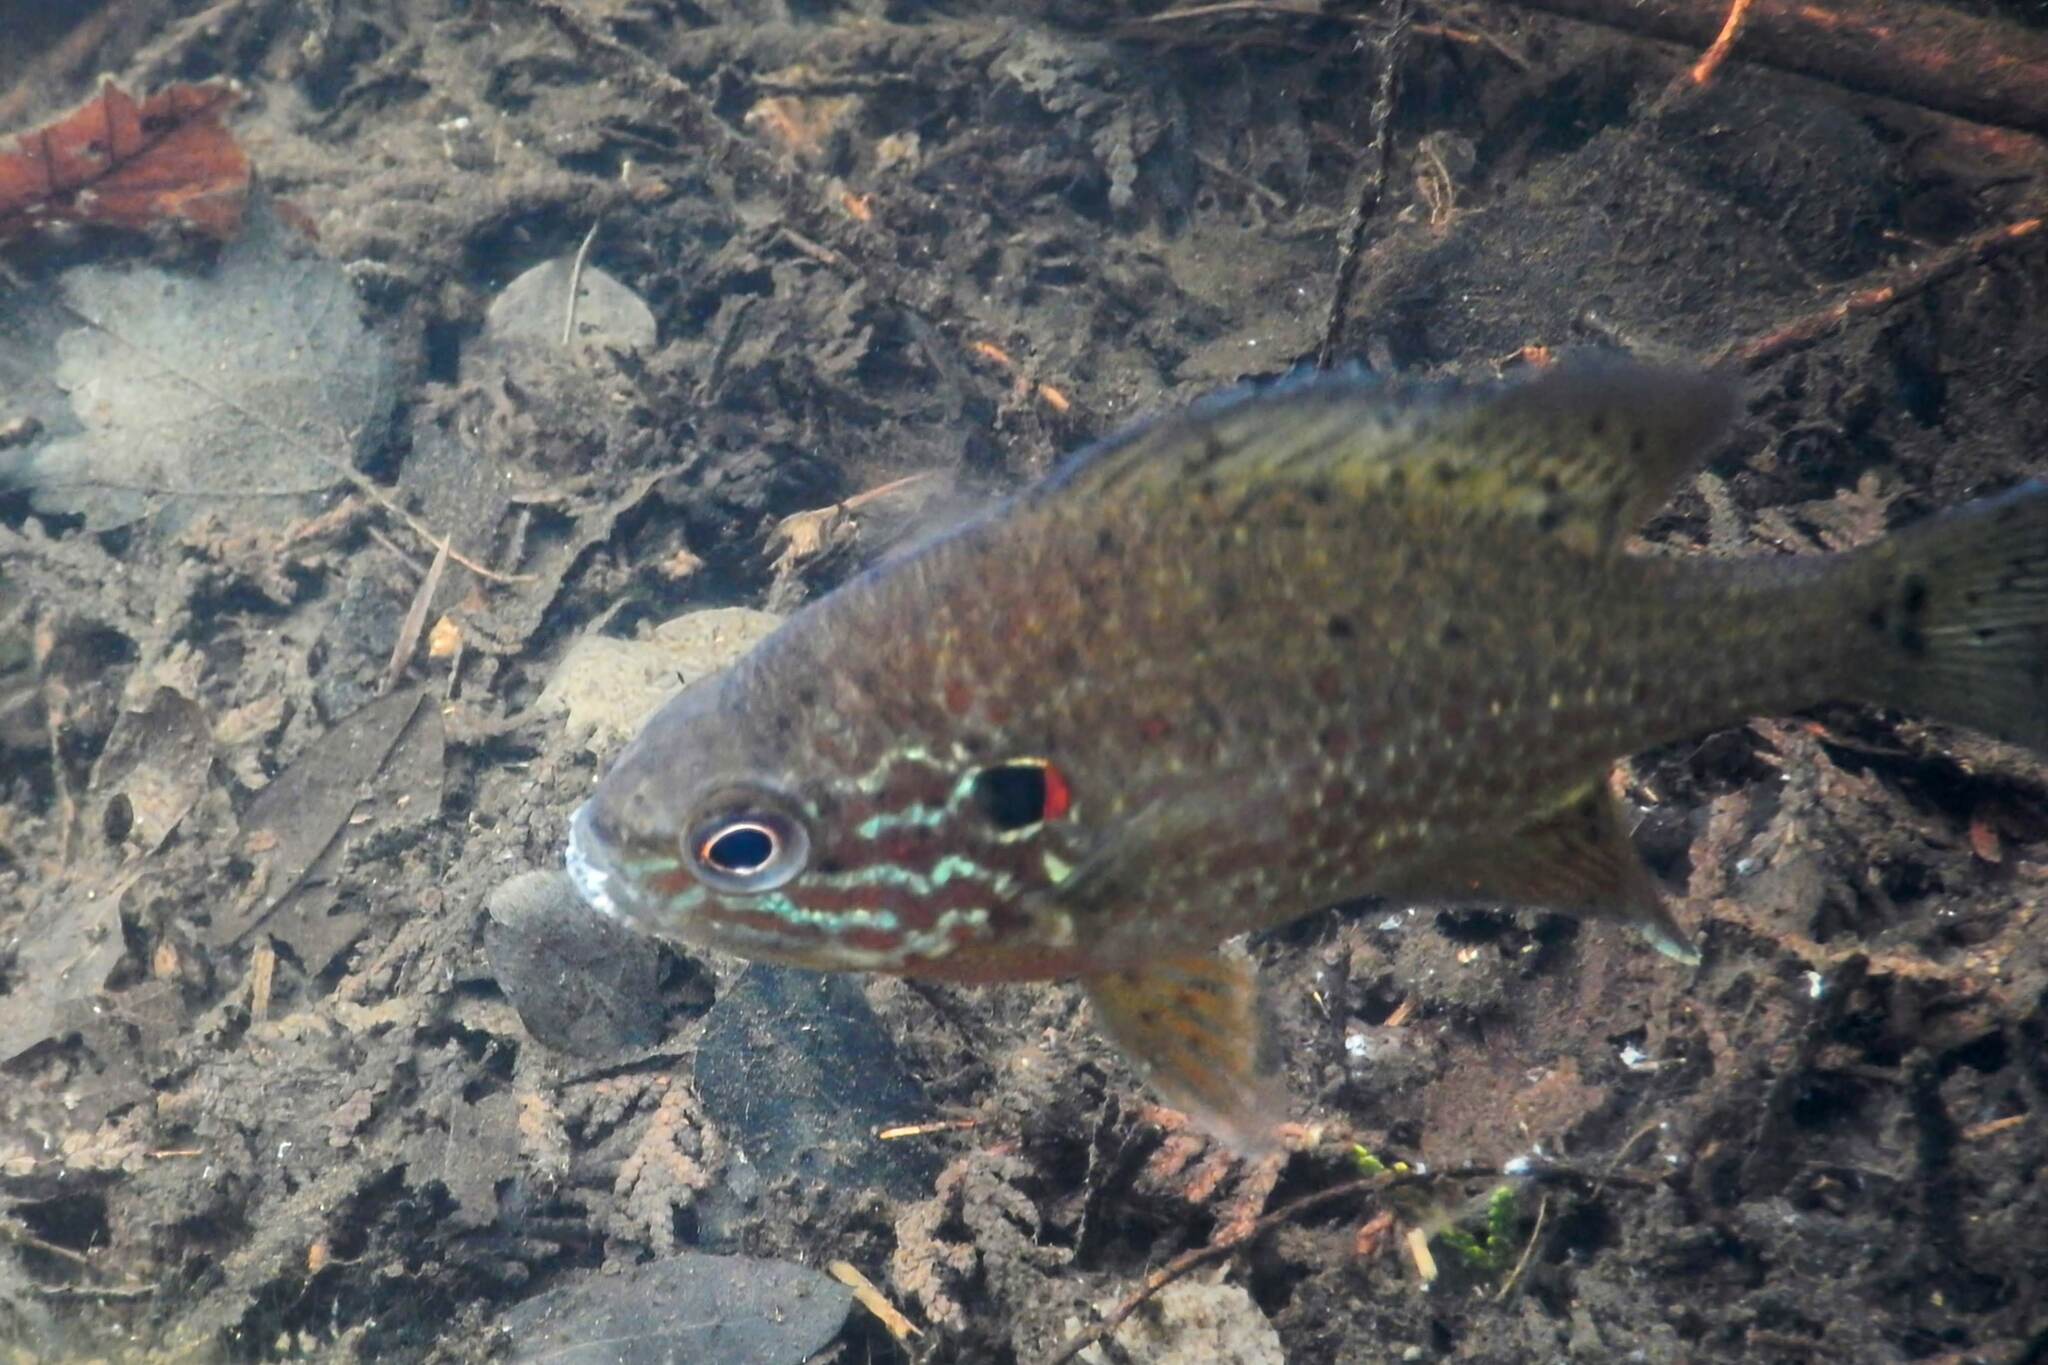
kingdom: Animalia
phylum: Chordata
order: Perciformes
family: Centrarchidae
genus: Lepomis
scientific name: Lepomis gibbosus
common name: Pumpkinseed
